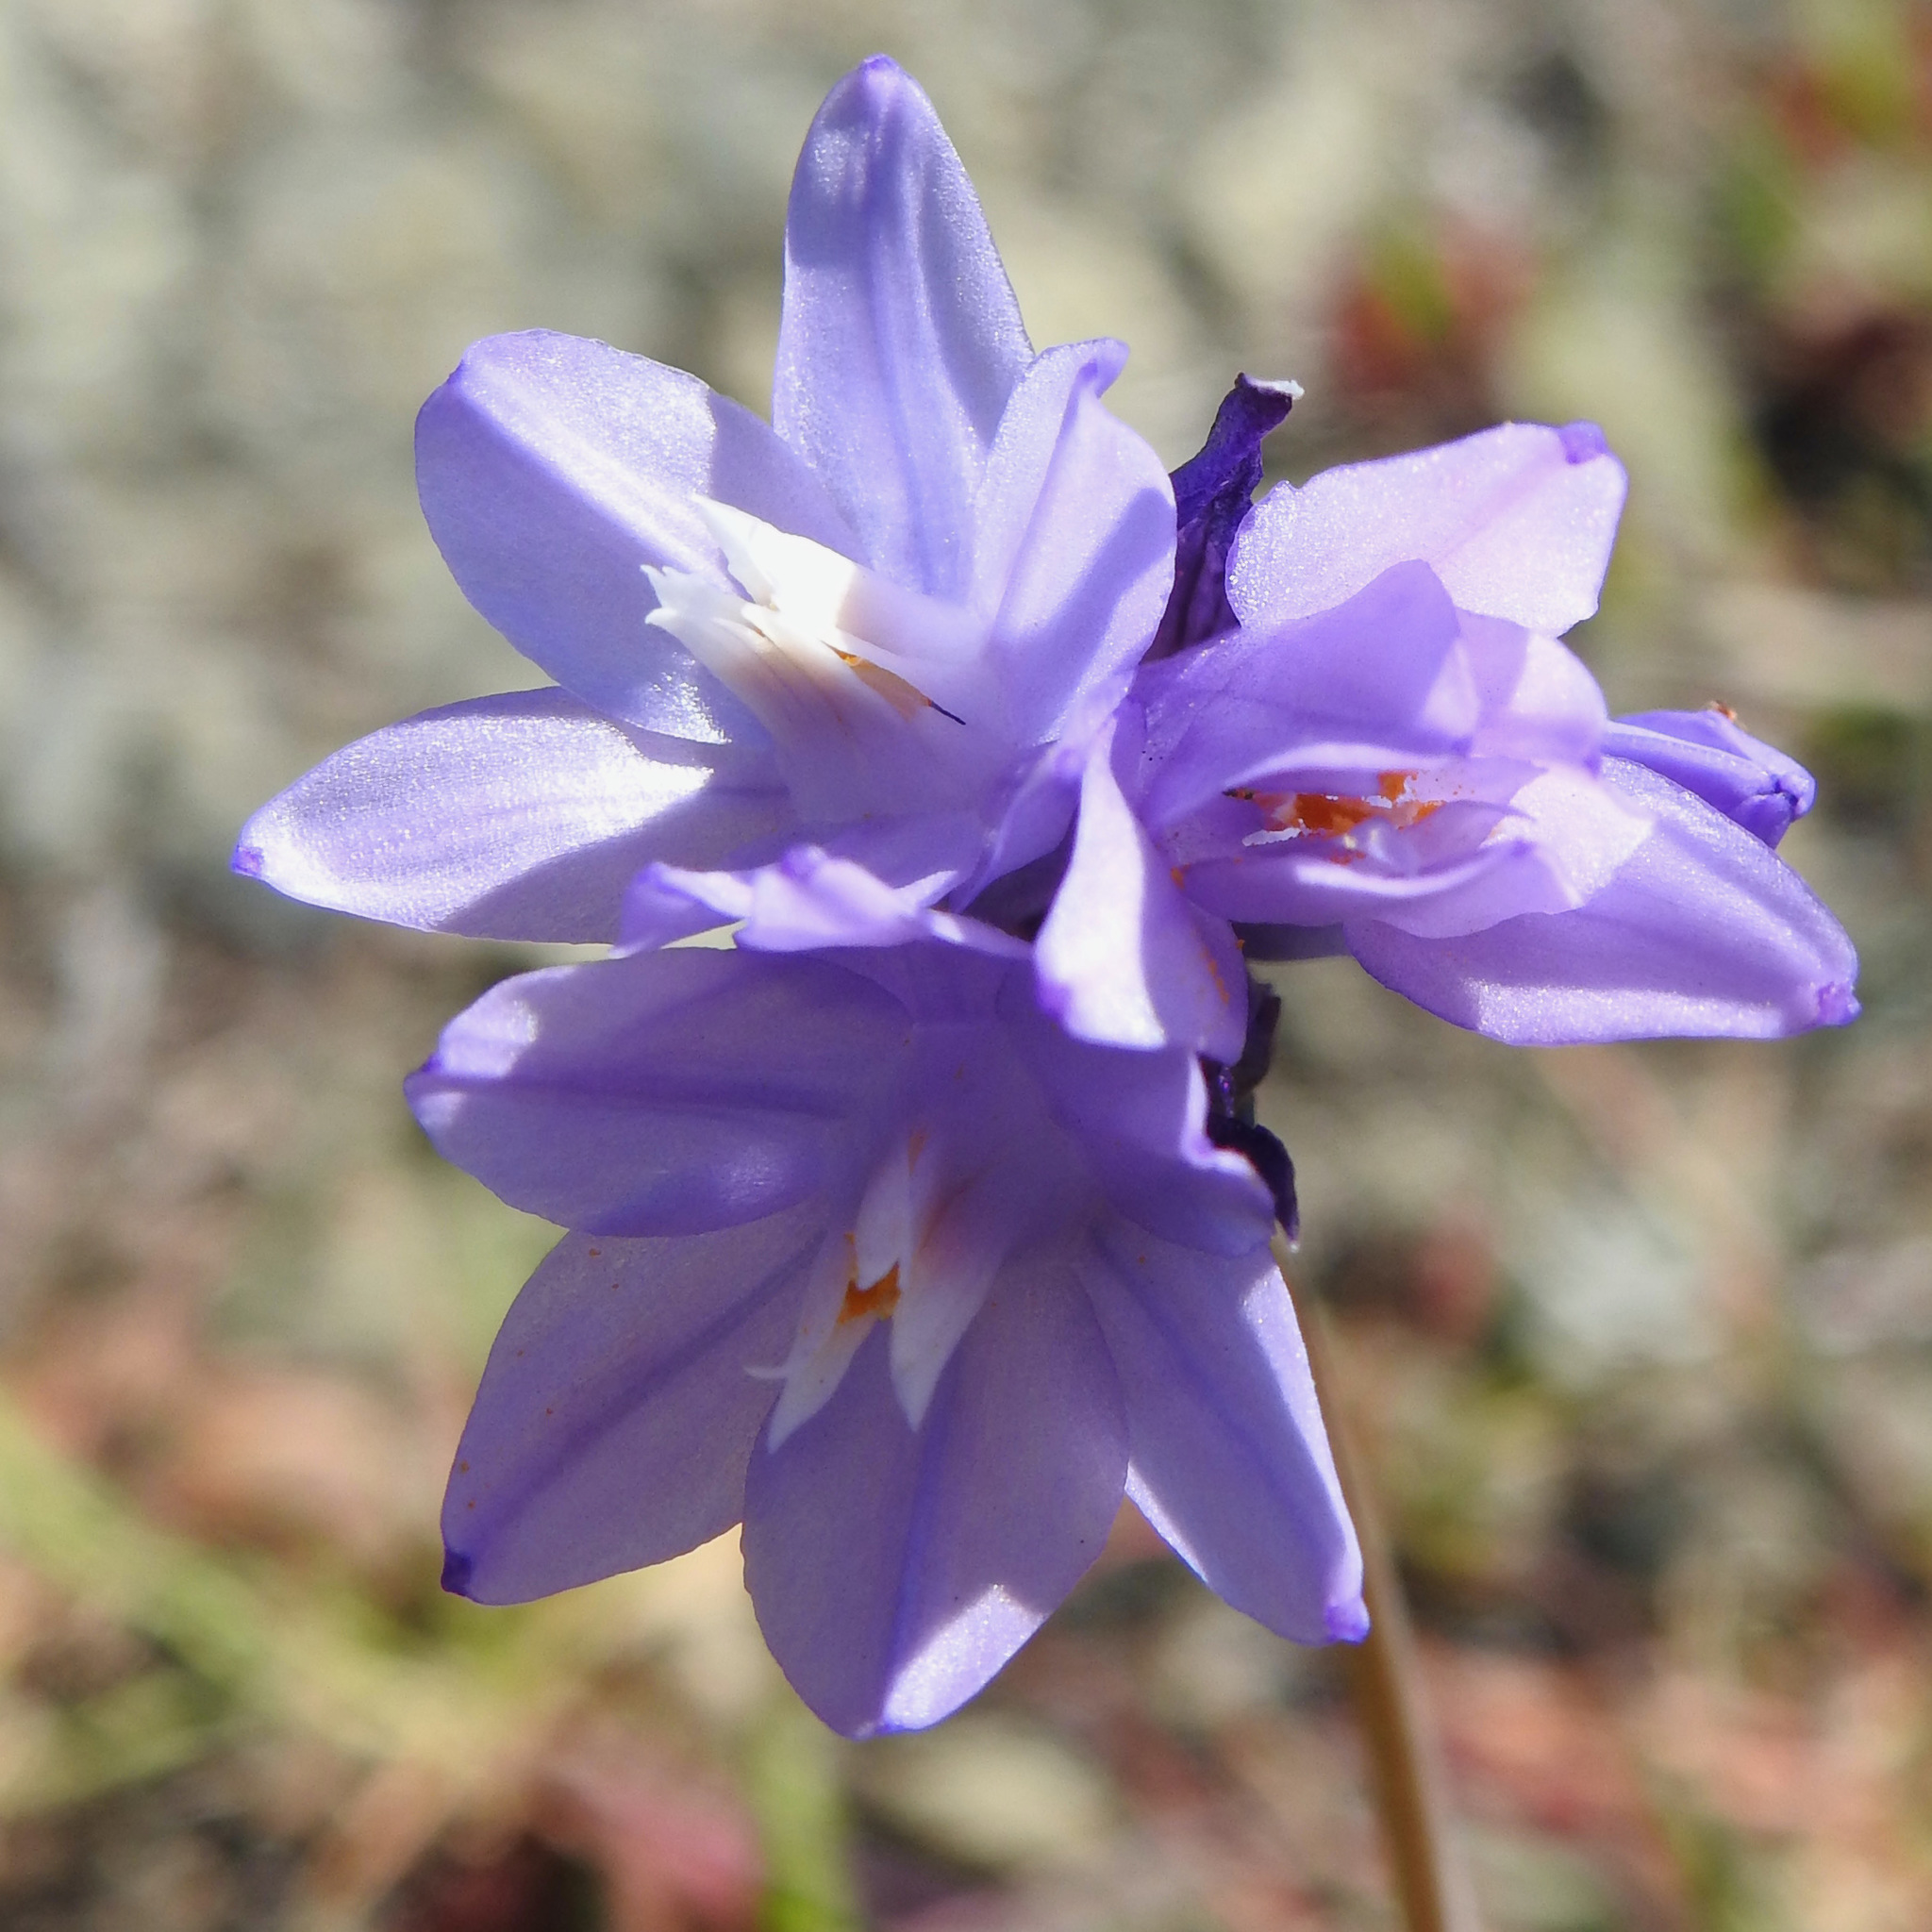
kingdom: Plantae
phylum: Tracheophyta
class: Liliopsida
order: Asparagales
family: Asparagaceae
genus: Dipterostemon
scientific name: Dipterostemon capitatus
